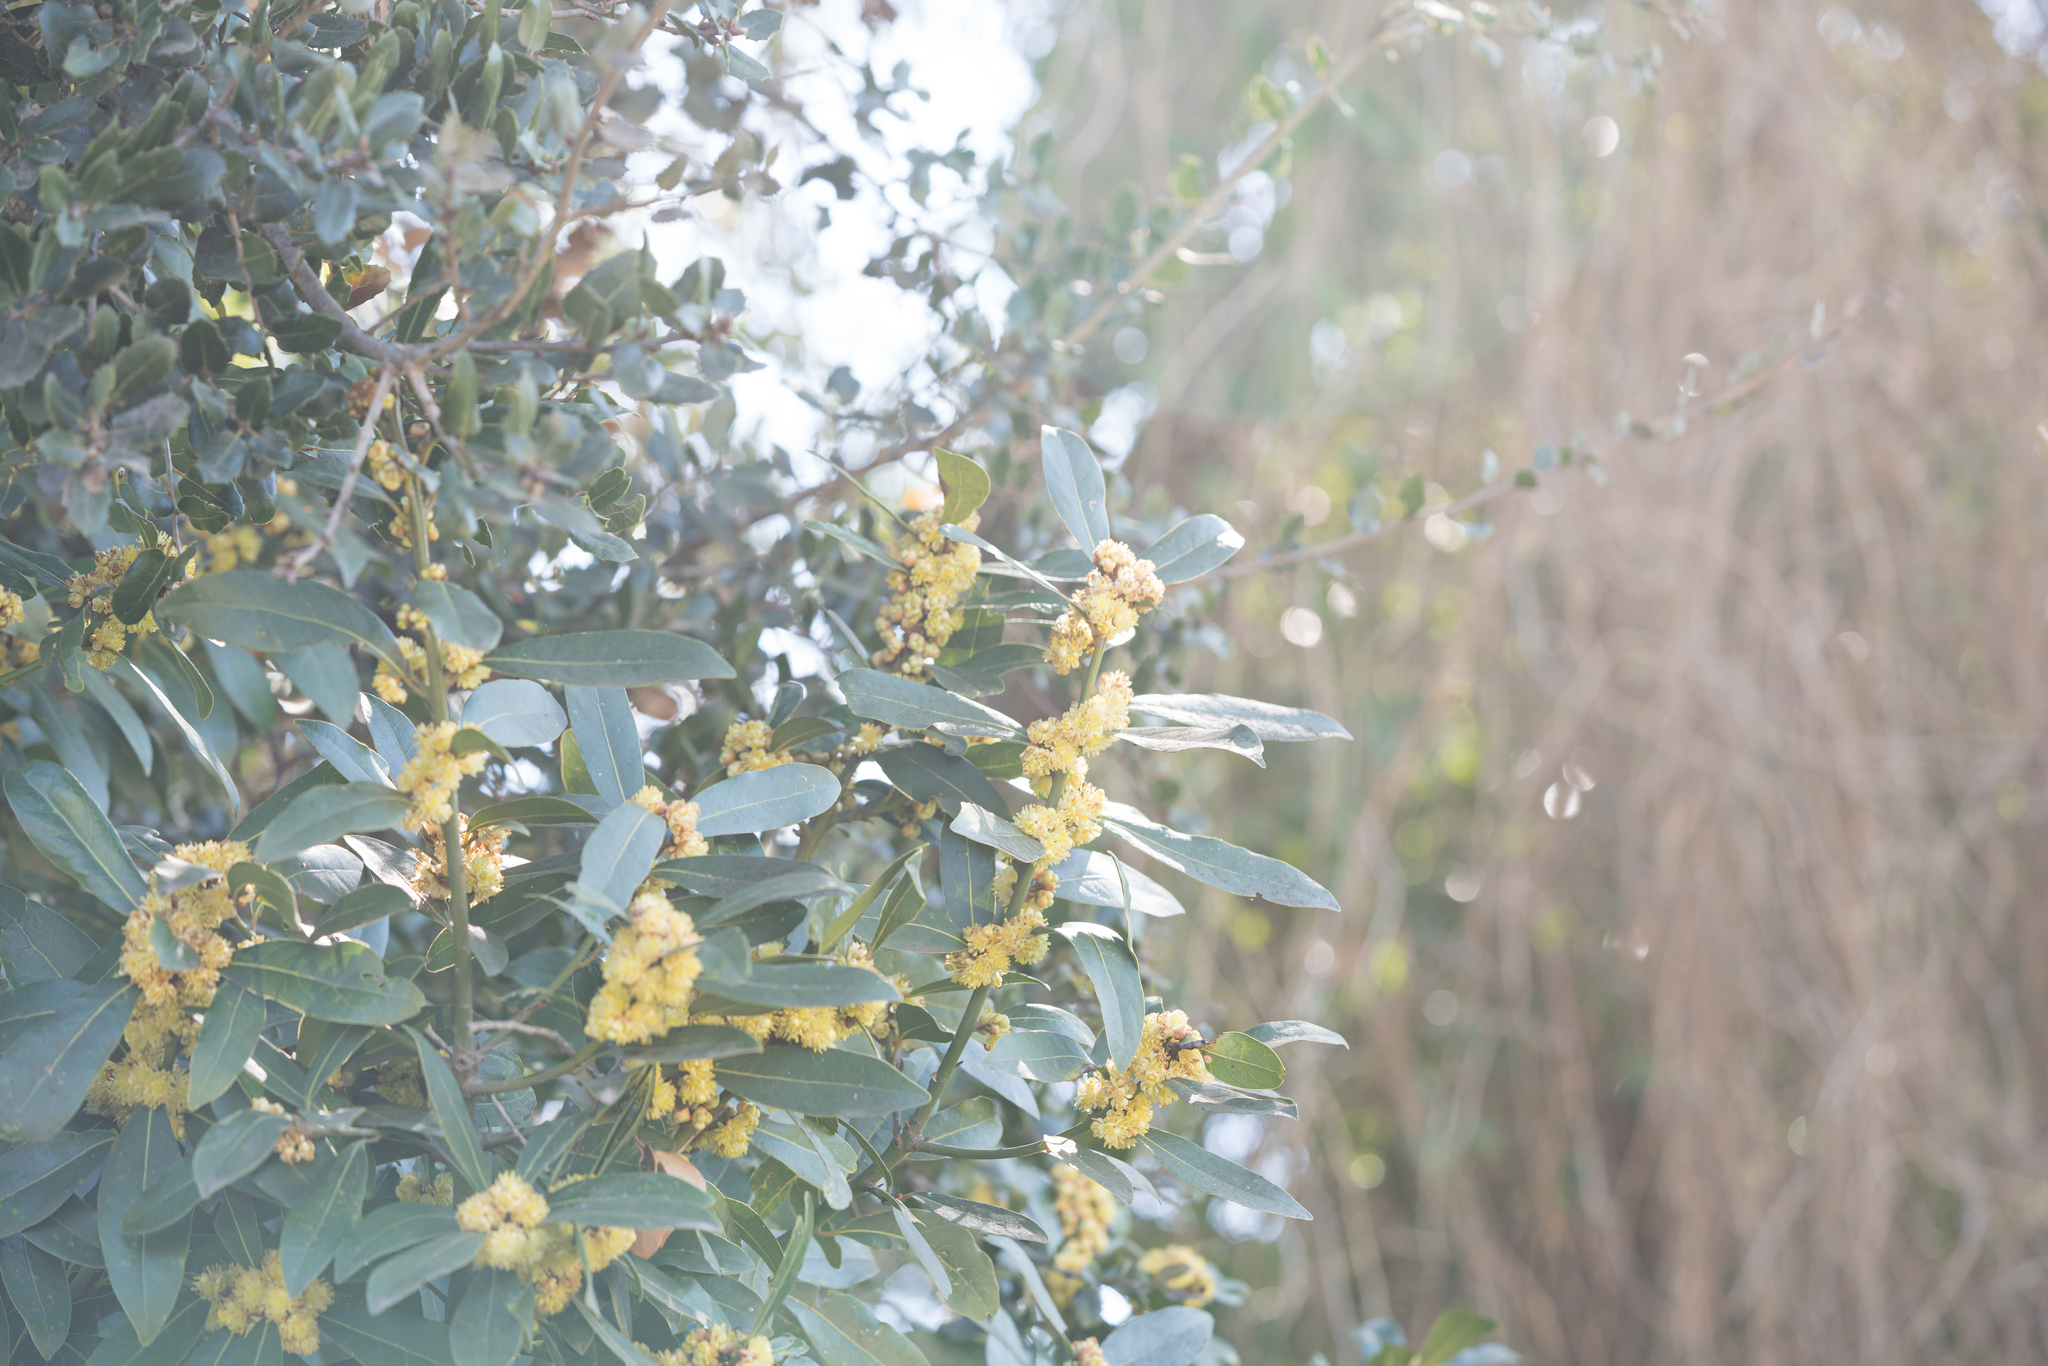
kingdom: Plantae
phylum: Tracheophyta
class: Magnoliopsida
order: Laurales
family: Lauraceae
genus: Laurus
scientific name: Laurus nobilis
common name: Bay
